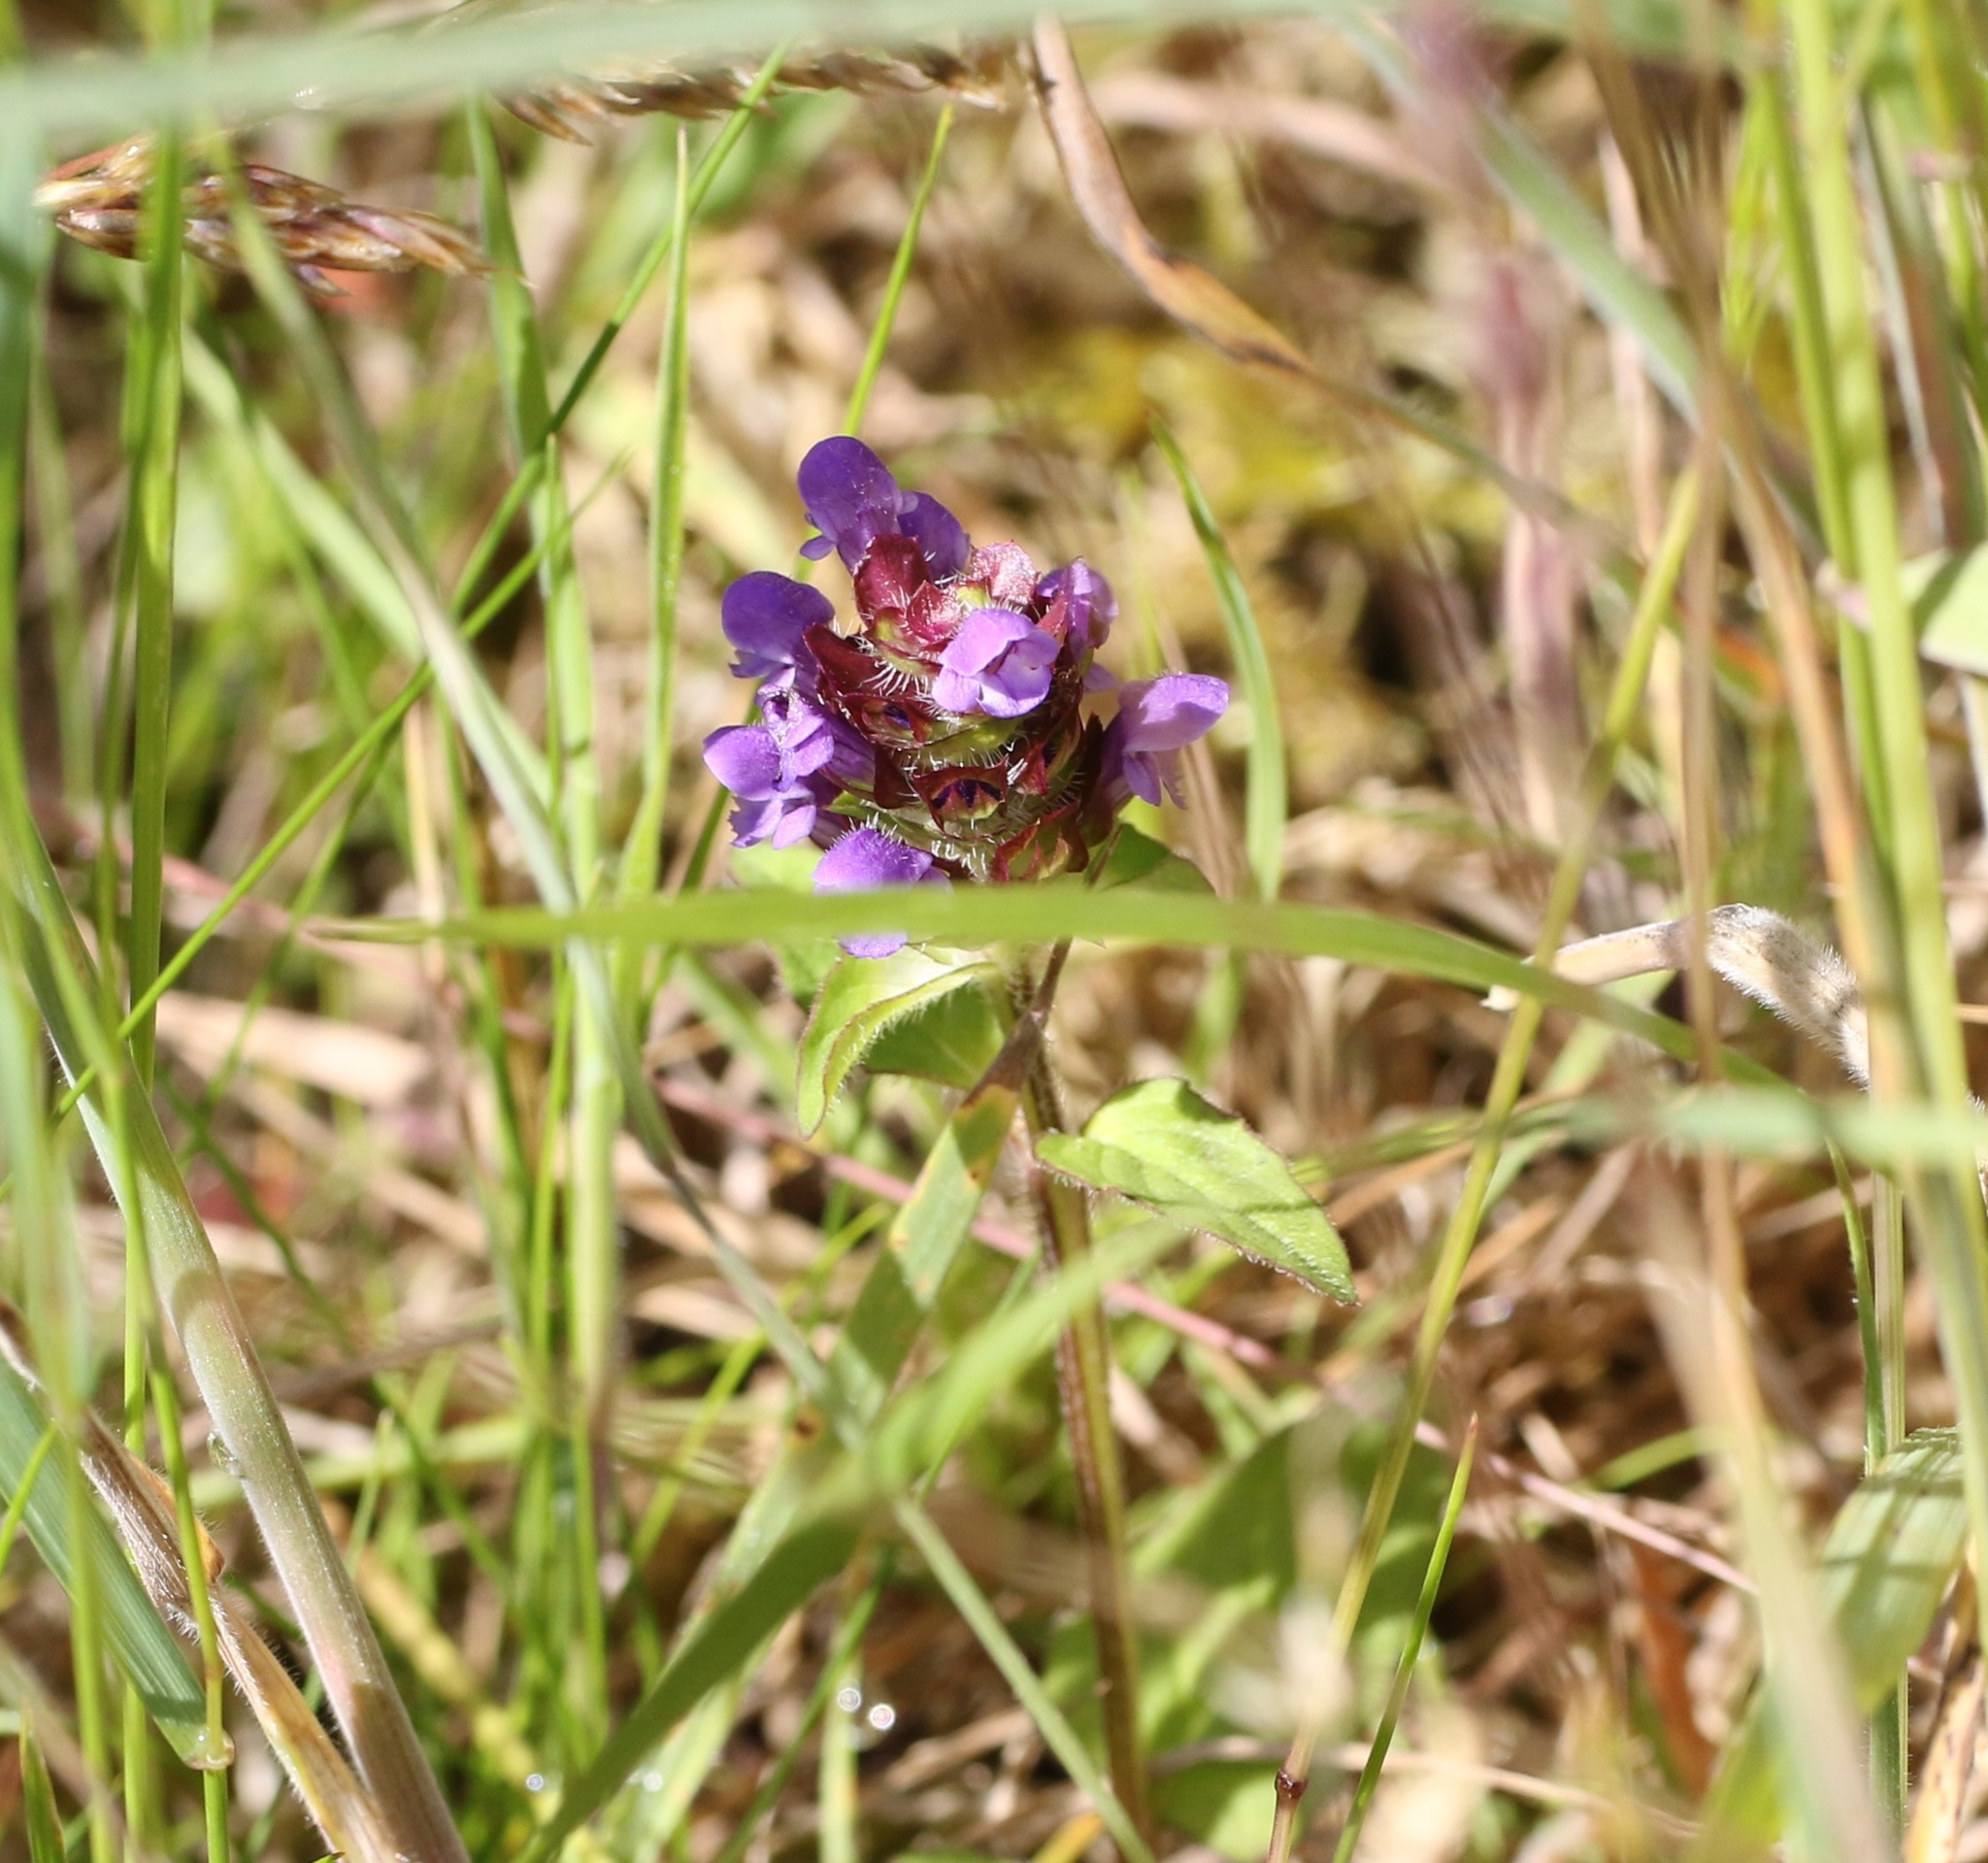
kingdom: Plantae
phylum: Tracheophyta
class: Magnoliopsida
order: Lamiales
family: Lamiaceae
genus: Prunella
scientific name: Prunella vulgaris
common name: Heal-all
